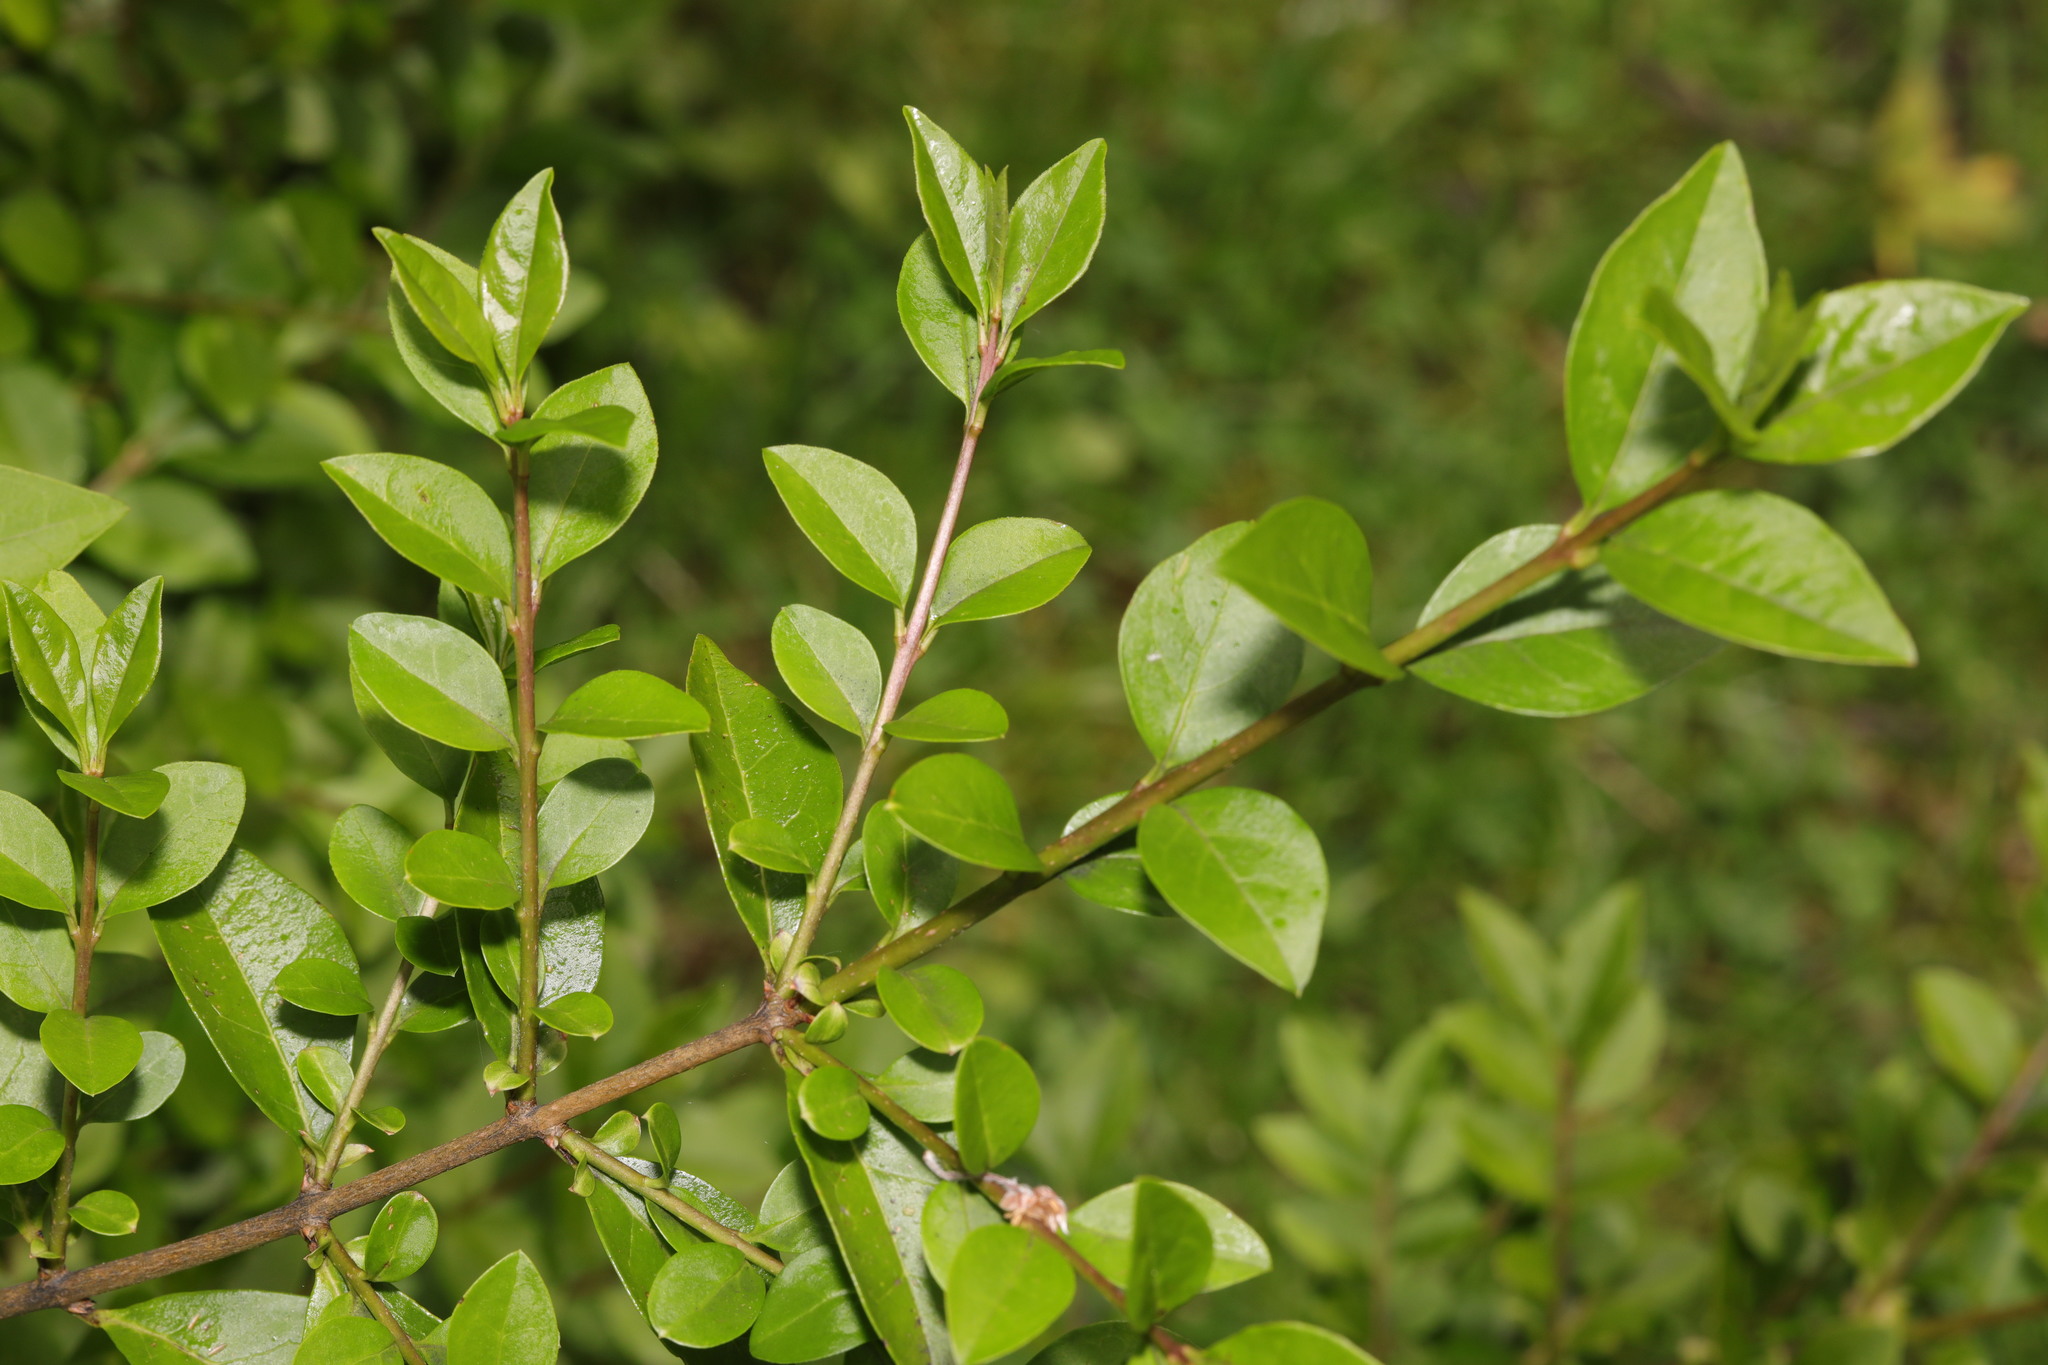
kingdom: Plantae
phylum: Tracheophyta
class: Magnoliopsida
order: Lamiales
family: Oleaceae
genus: Ligustrum
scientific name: Ligustrum ovalifolium
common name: California privet
